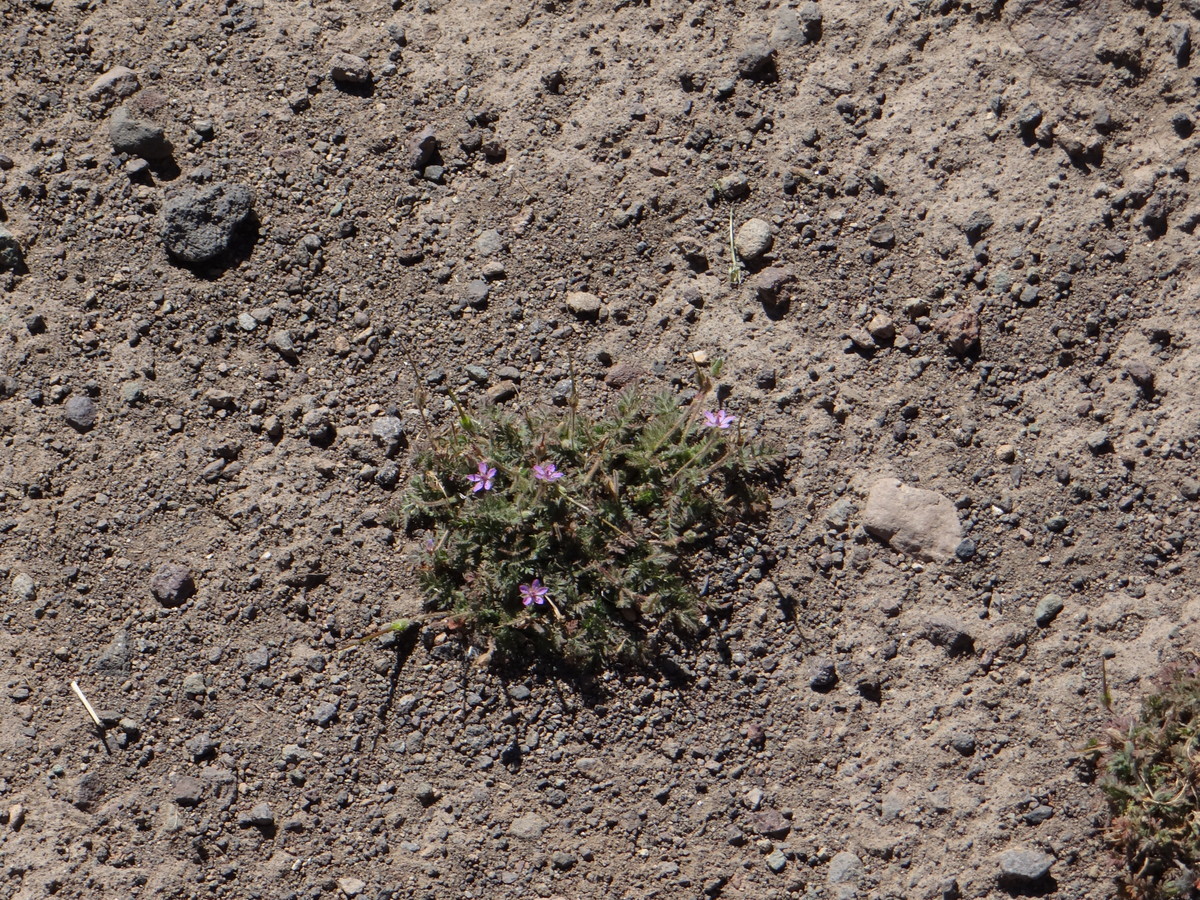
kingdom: Plantae
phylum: Tracheophyta
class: Magnoliopsida
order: Geraniales
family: Geraniaceae
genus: Erodium
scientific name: Erodium cicutarium
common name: Common stork's-bill
